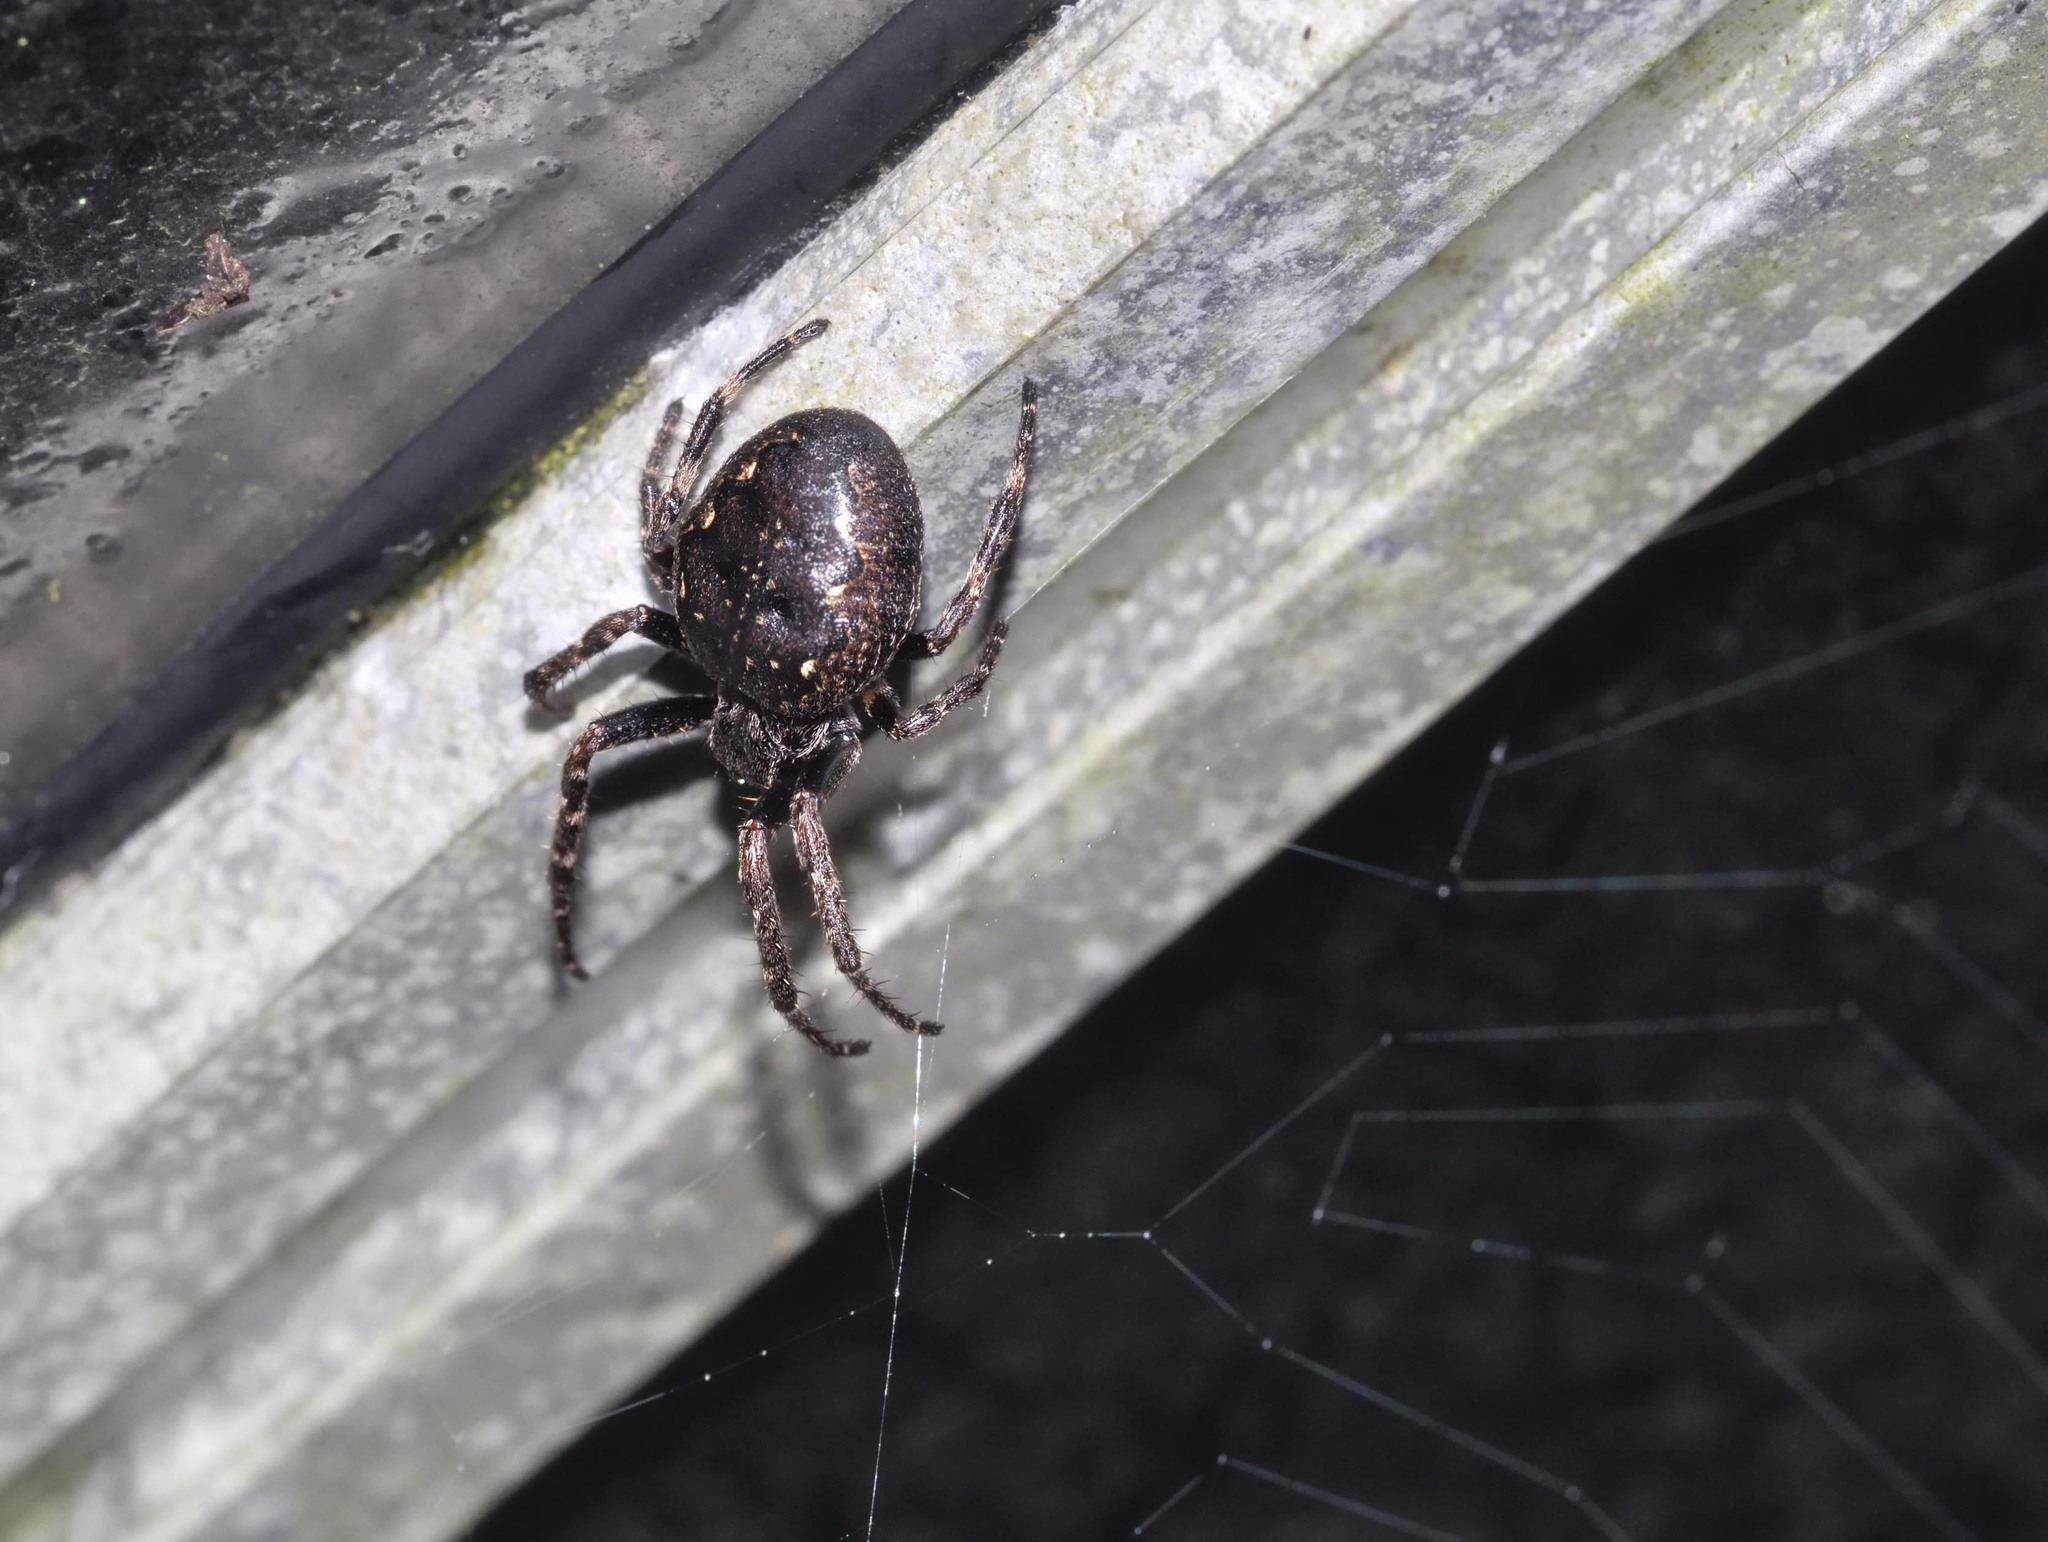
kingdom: Animalia
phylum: Arthropoda
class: Arachnida
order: Araneae
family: Araneidae
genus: Nuctenea
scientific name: Nuctenea umbratica
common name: Toad spider
